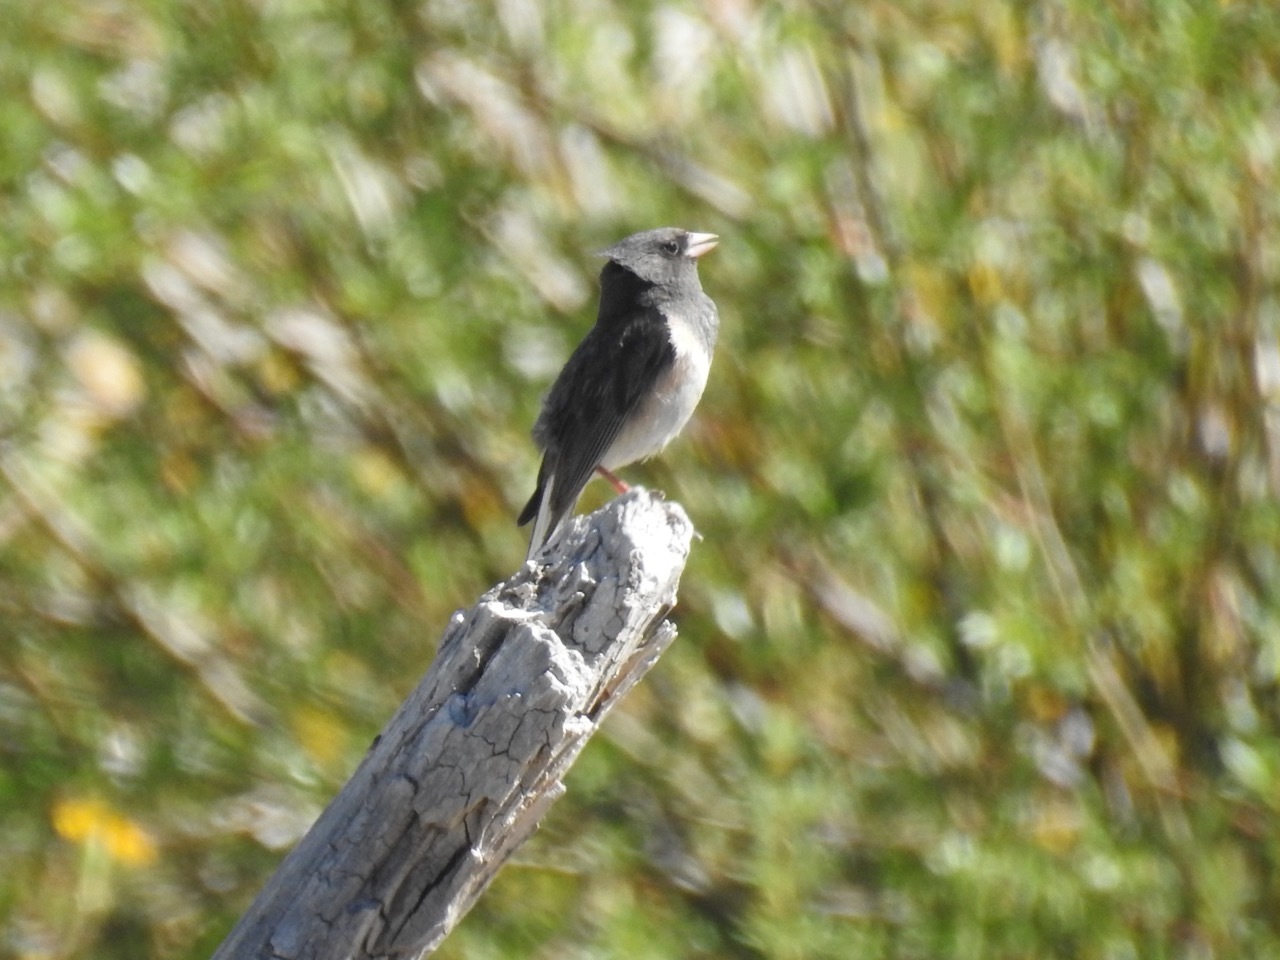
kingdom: Animalia
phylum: Chordata
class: Aves
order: Passeriformes
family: Passerellidae
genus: Junco
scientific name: Junco hyemalis
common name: Dark-eyed junco
